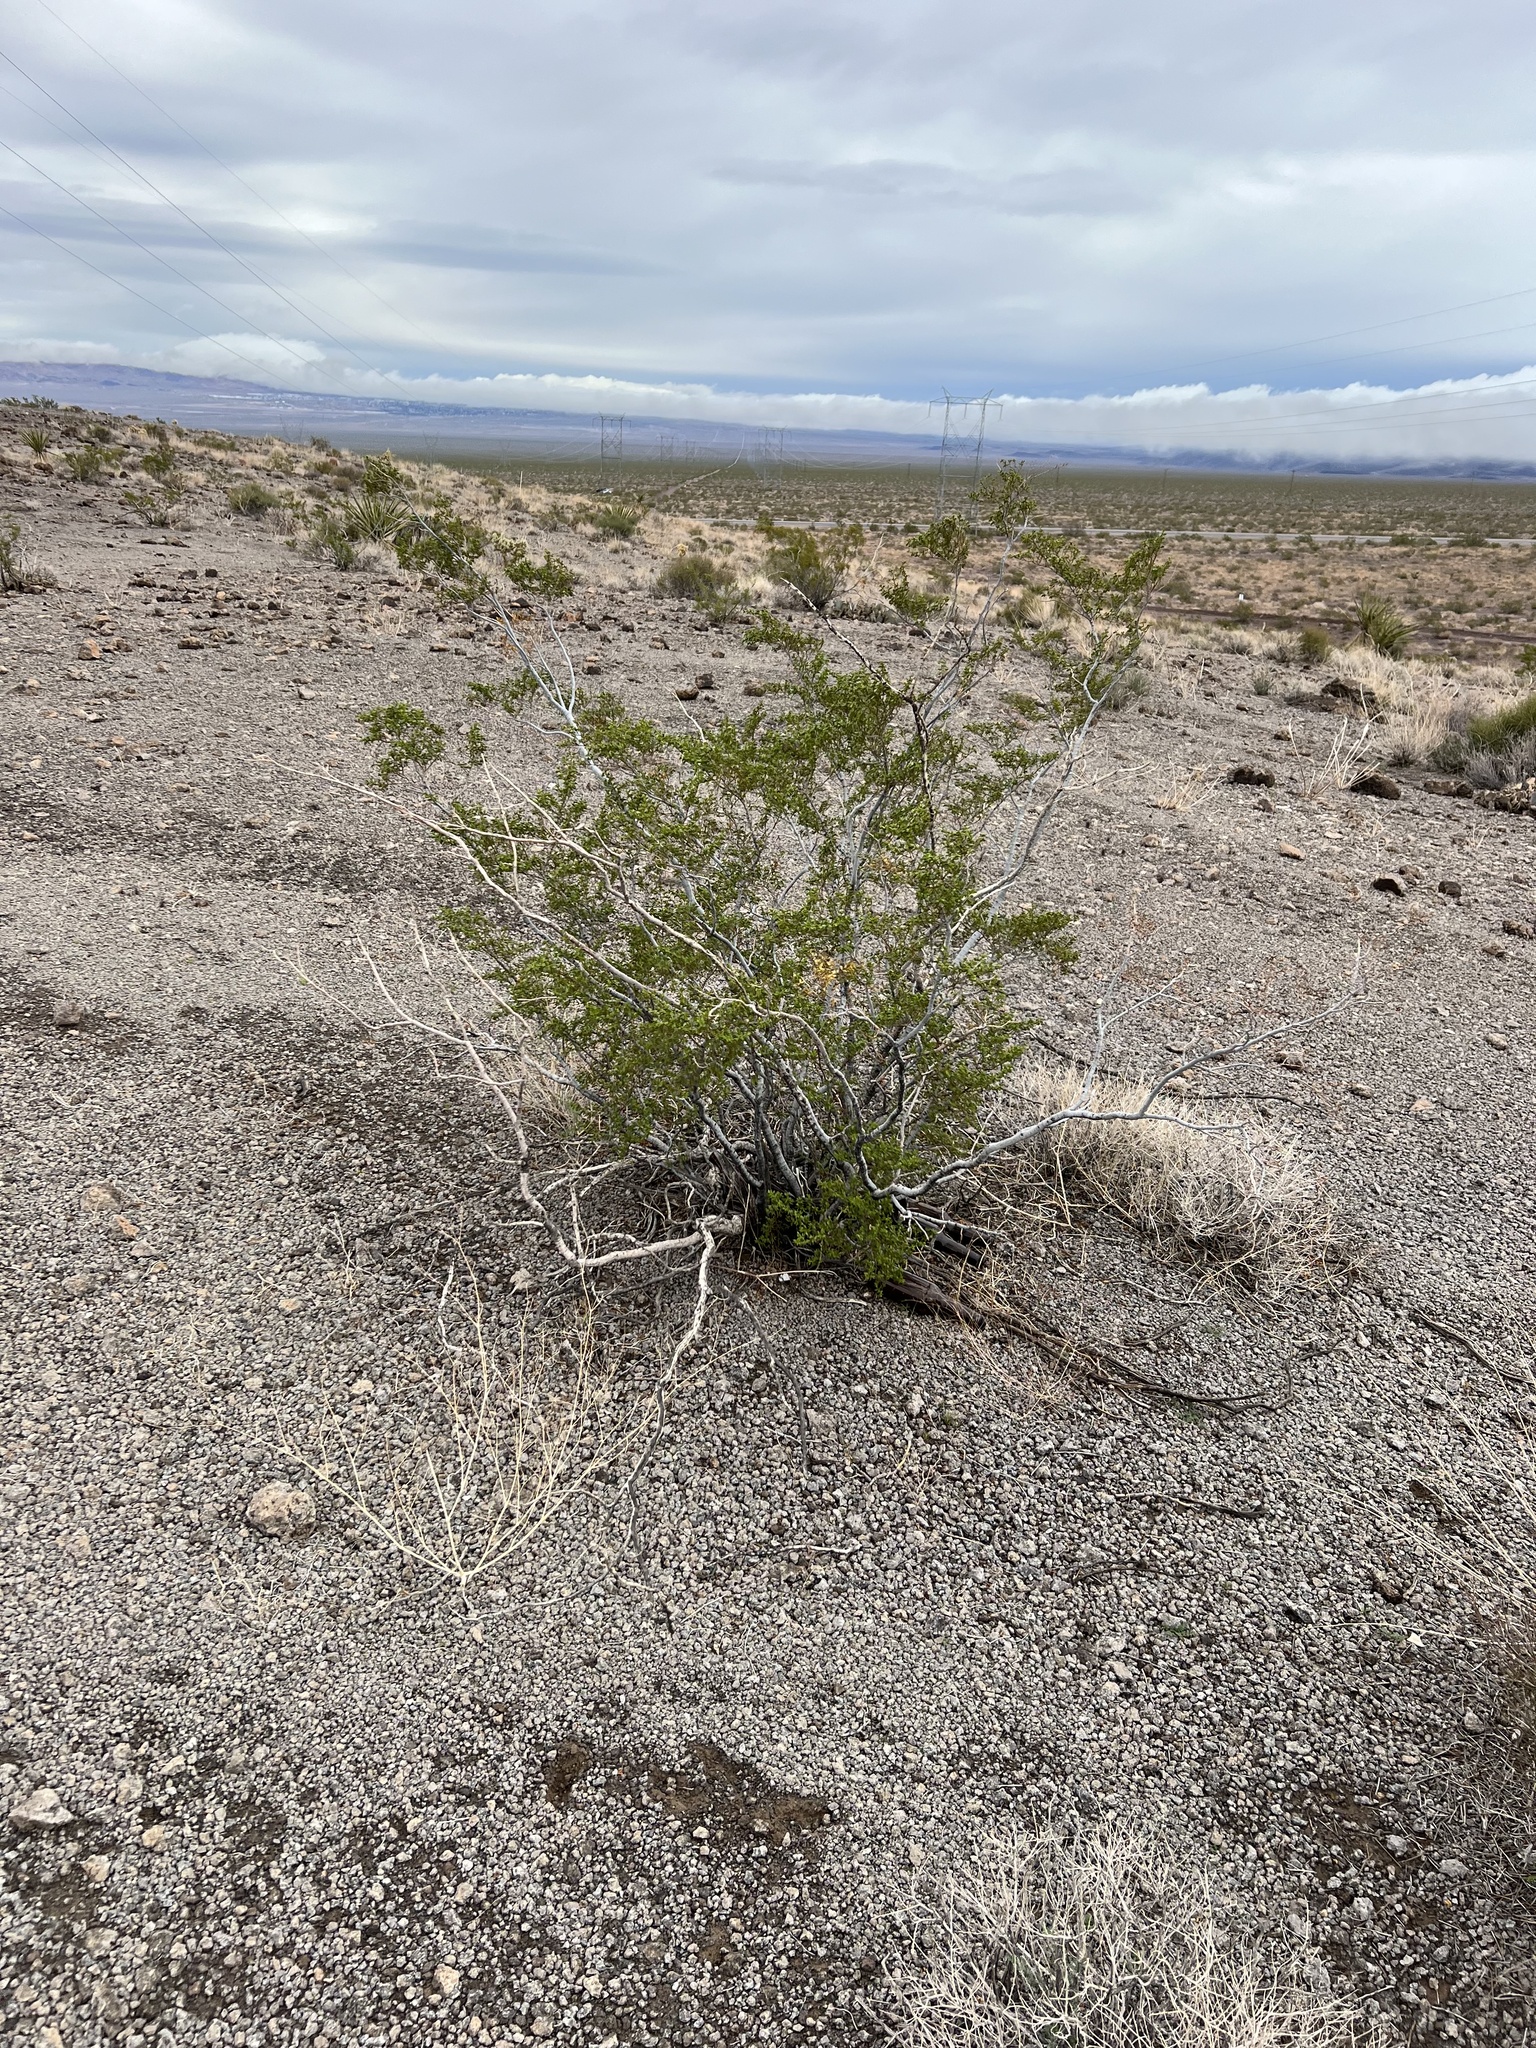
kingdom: Plantae
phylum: Tracheophyta
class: Magnoliopsida
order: Zygophyllales
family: Zygophyllaceae
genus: Larrea
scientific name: Larrea tridentata
